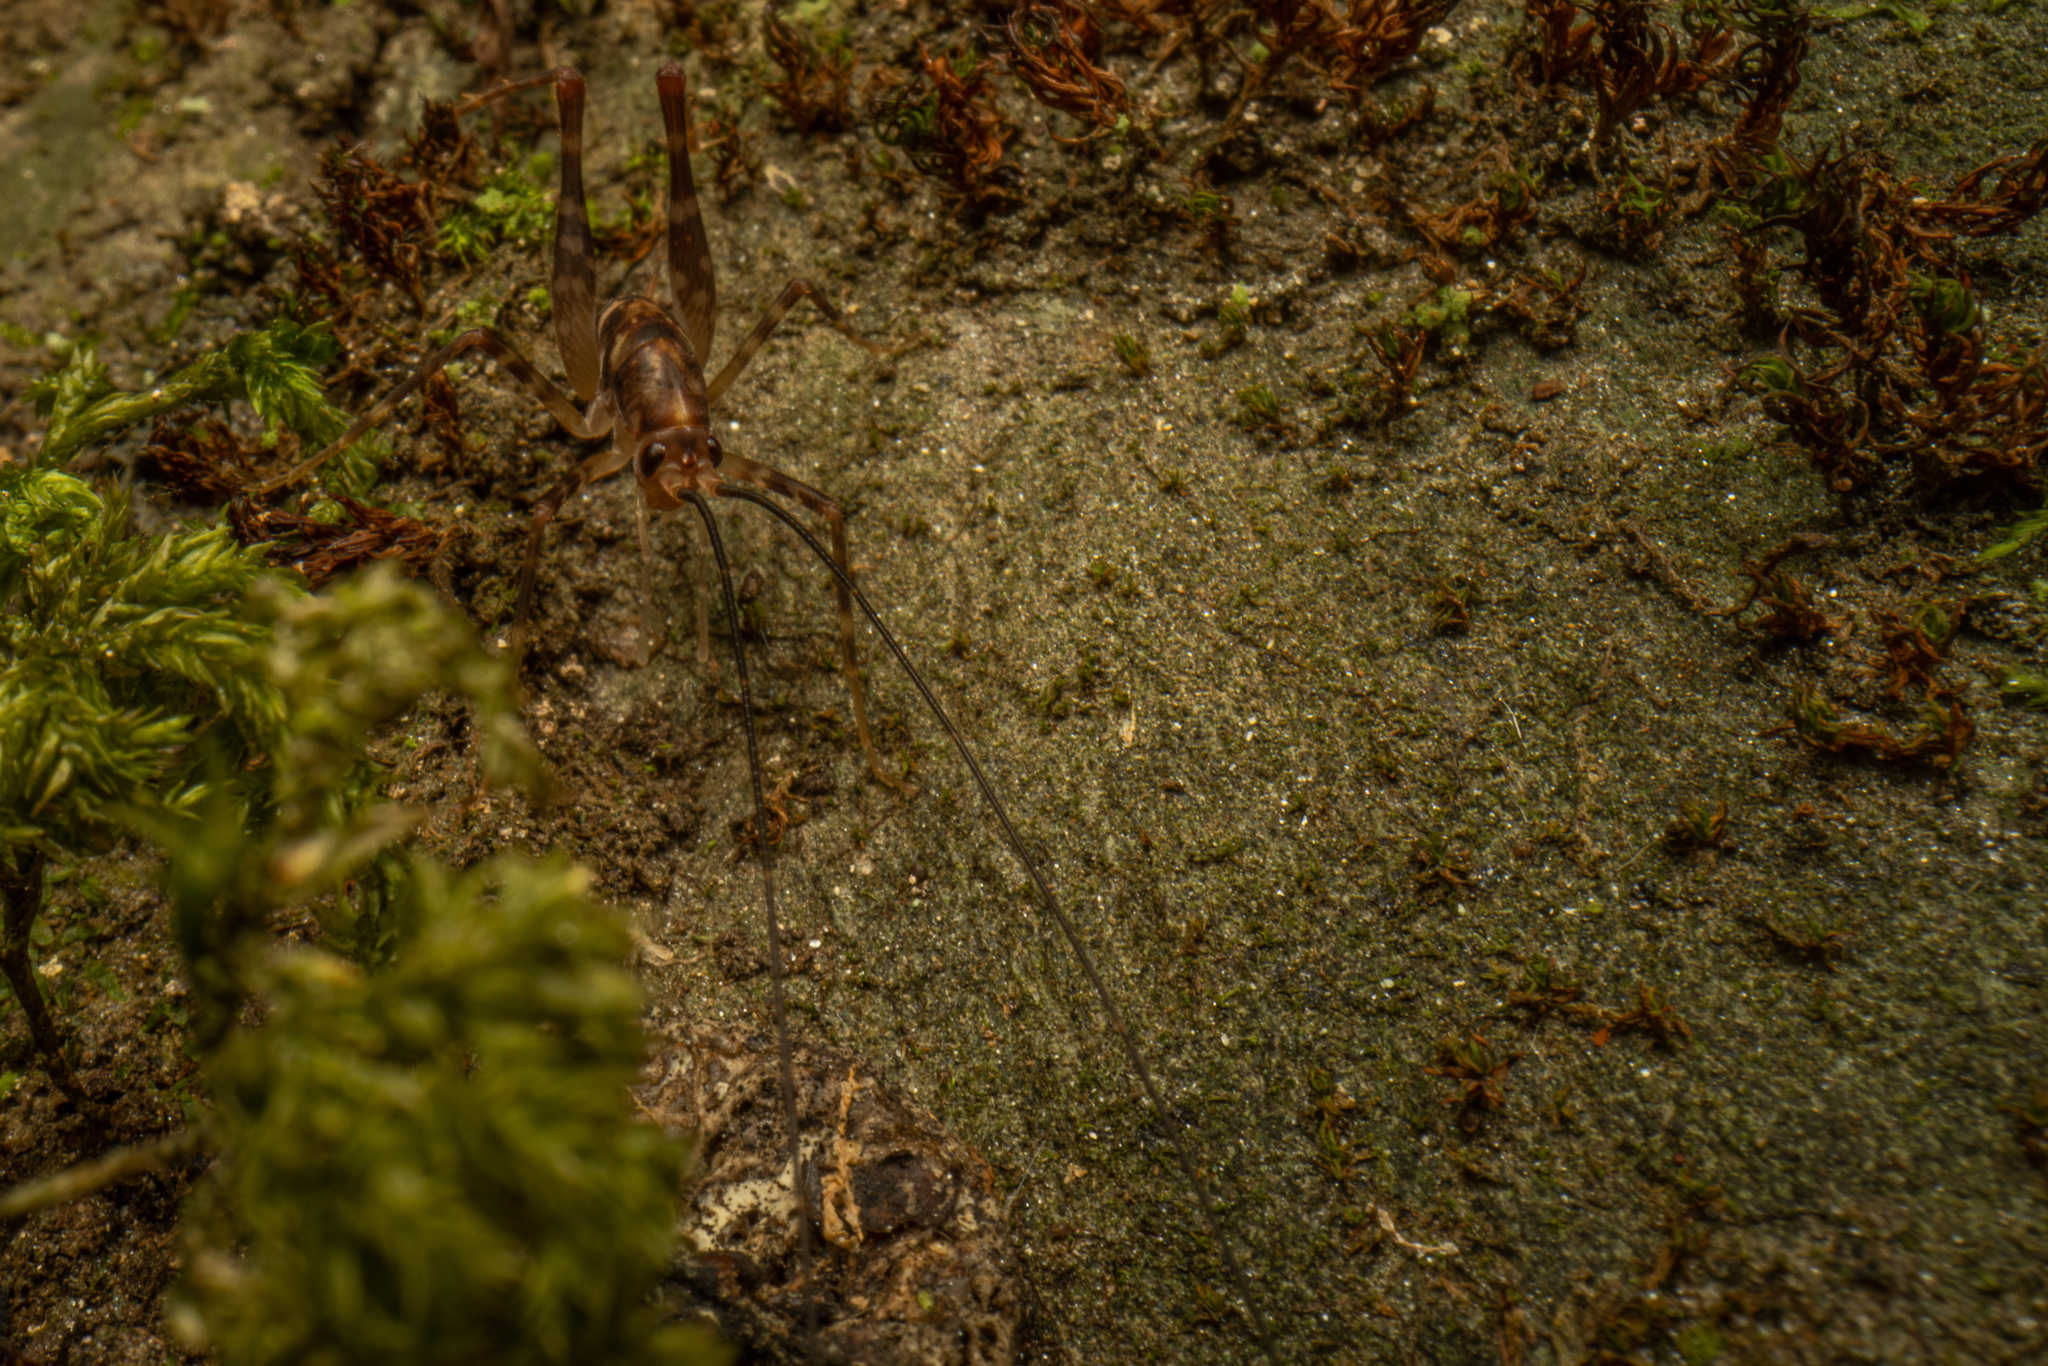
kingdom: Animalia
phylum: Arthropoda
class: Insecta
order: Orthoptera
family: Rhaphidophoridae
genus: Miotopus
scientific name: Miotopus richardsae
